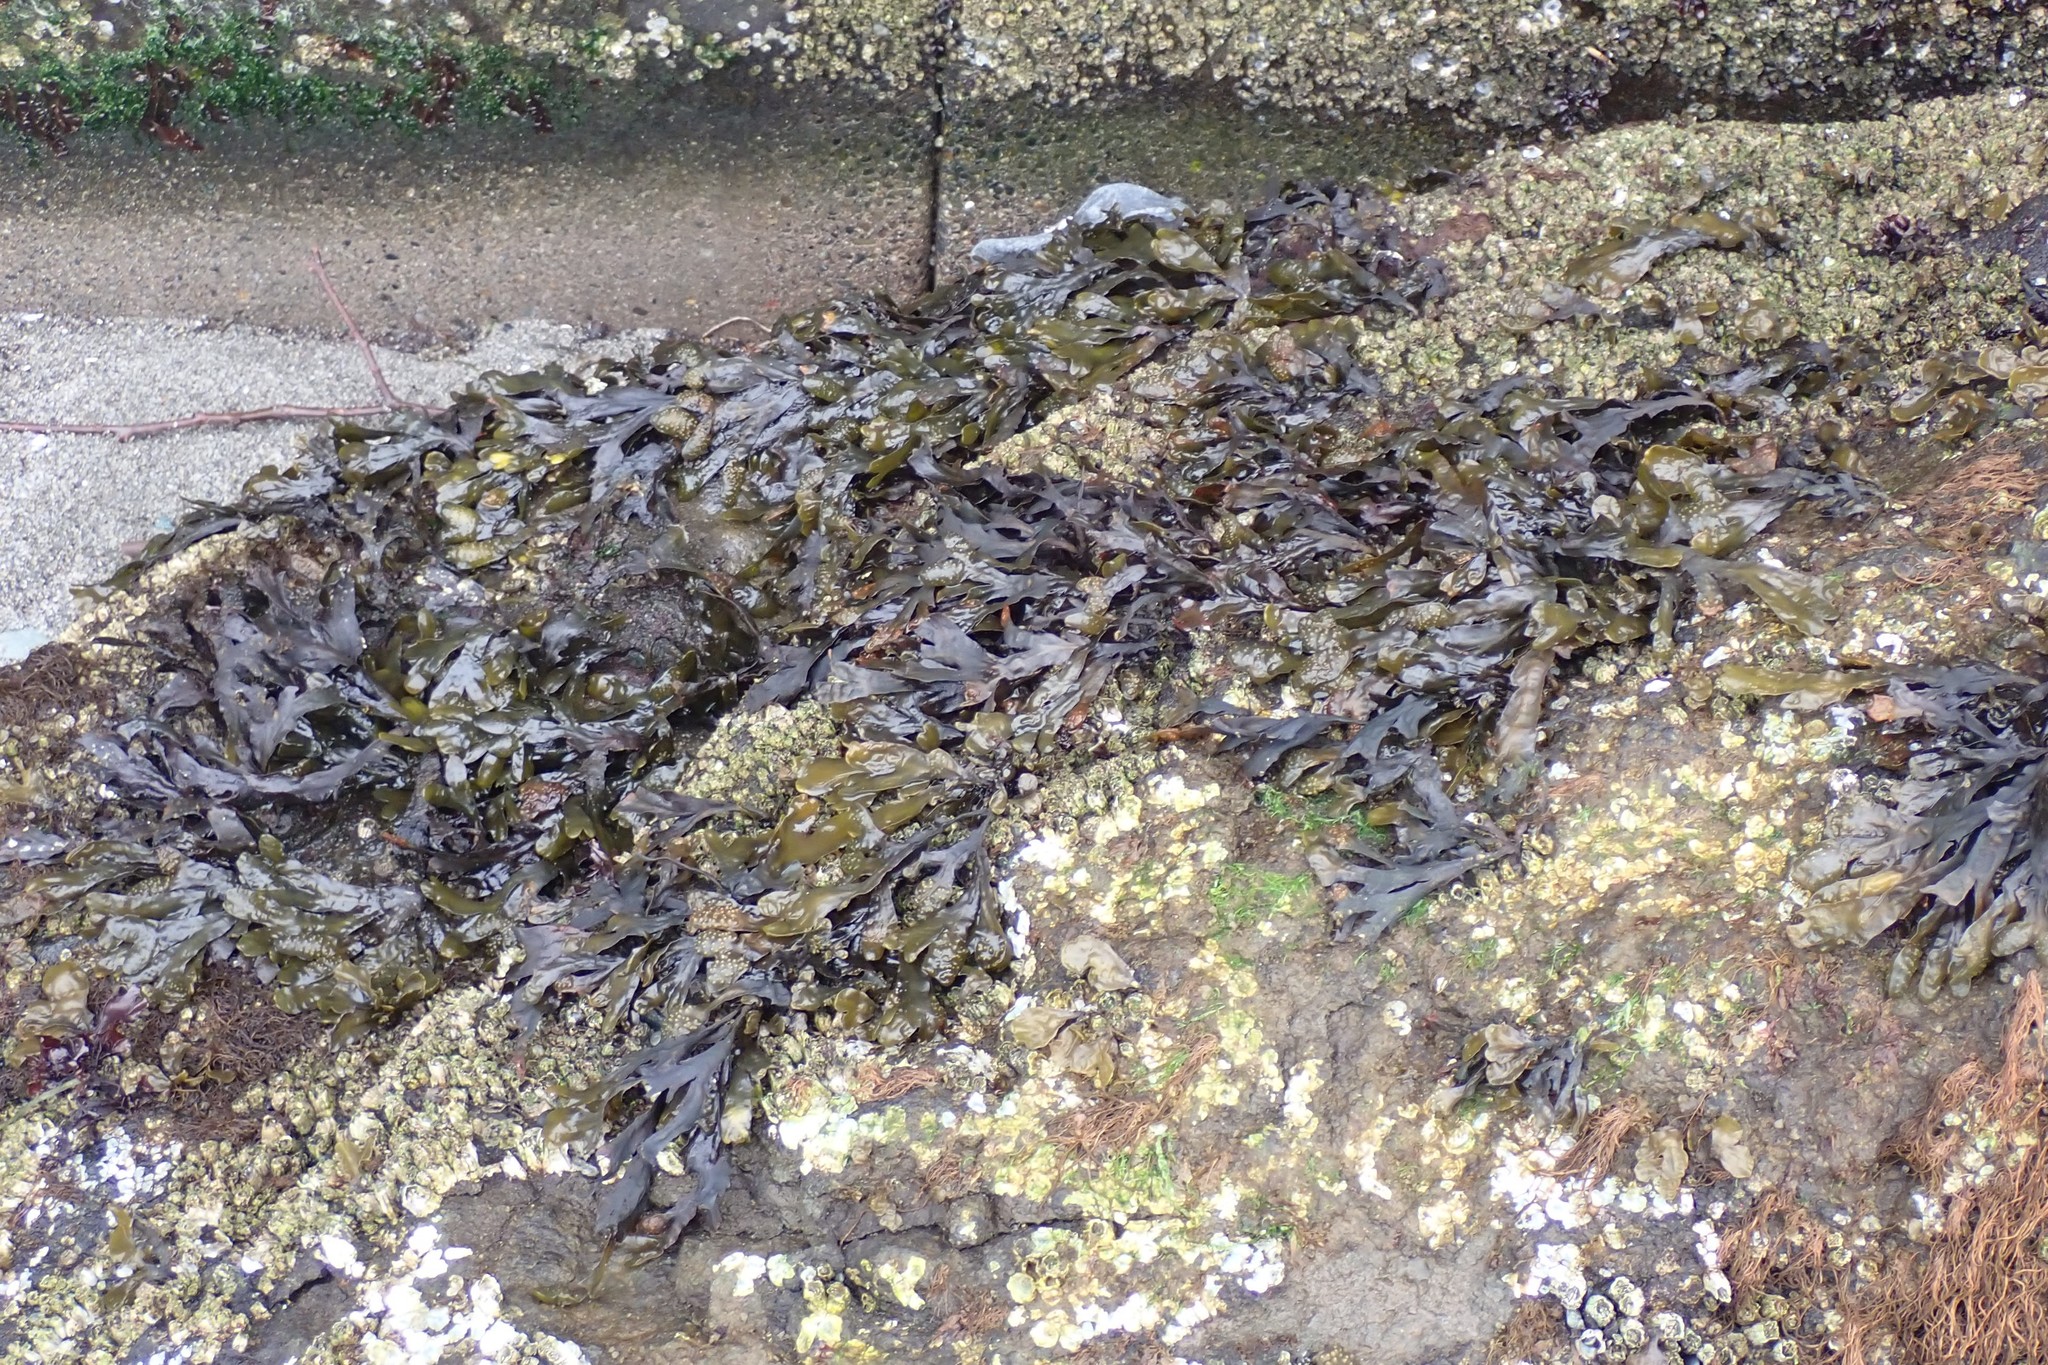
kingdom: Chromista
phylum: Ochrophyta
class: Phaeophyceae
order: Fucales
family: Fucaceae
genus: Fucus
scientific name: Fucus distichus
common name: Rockweed
